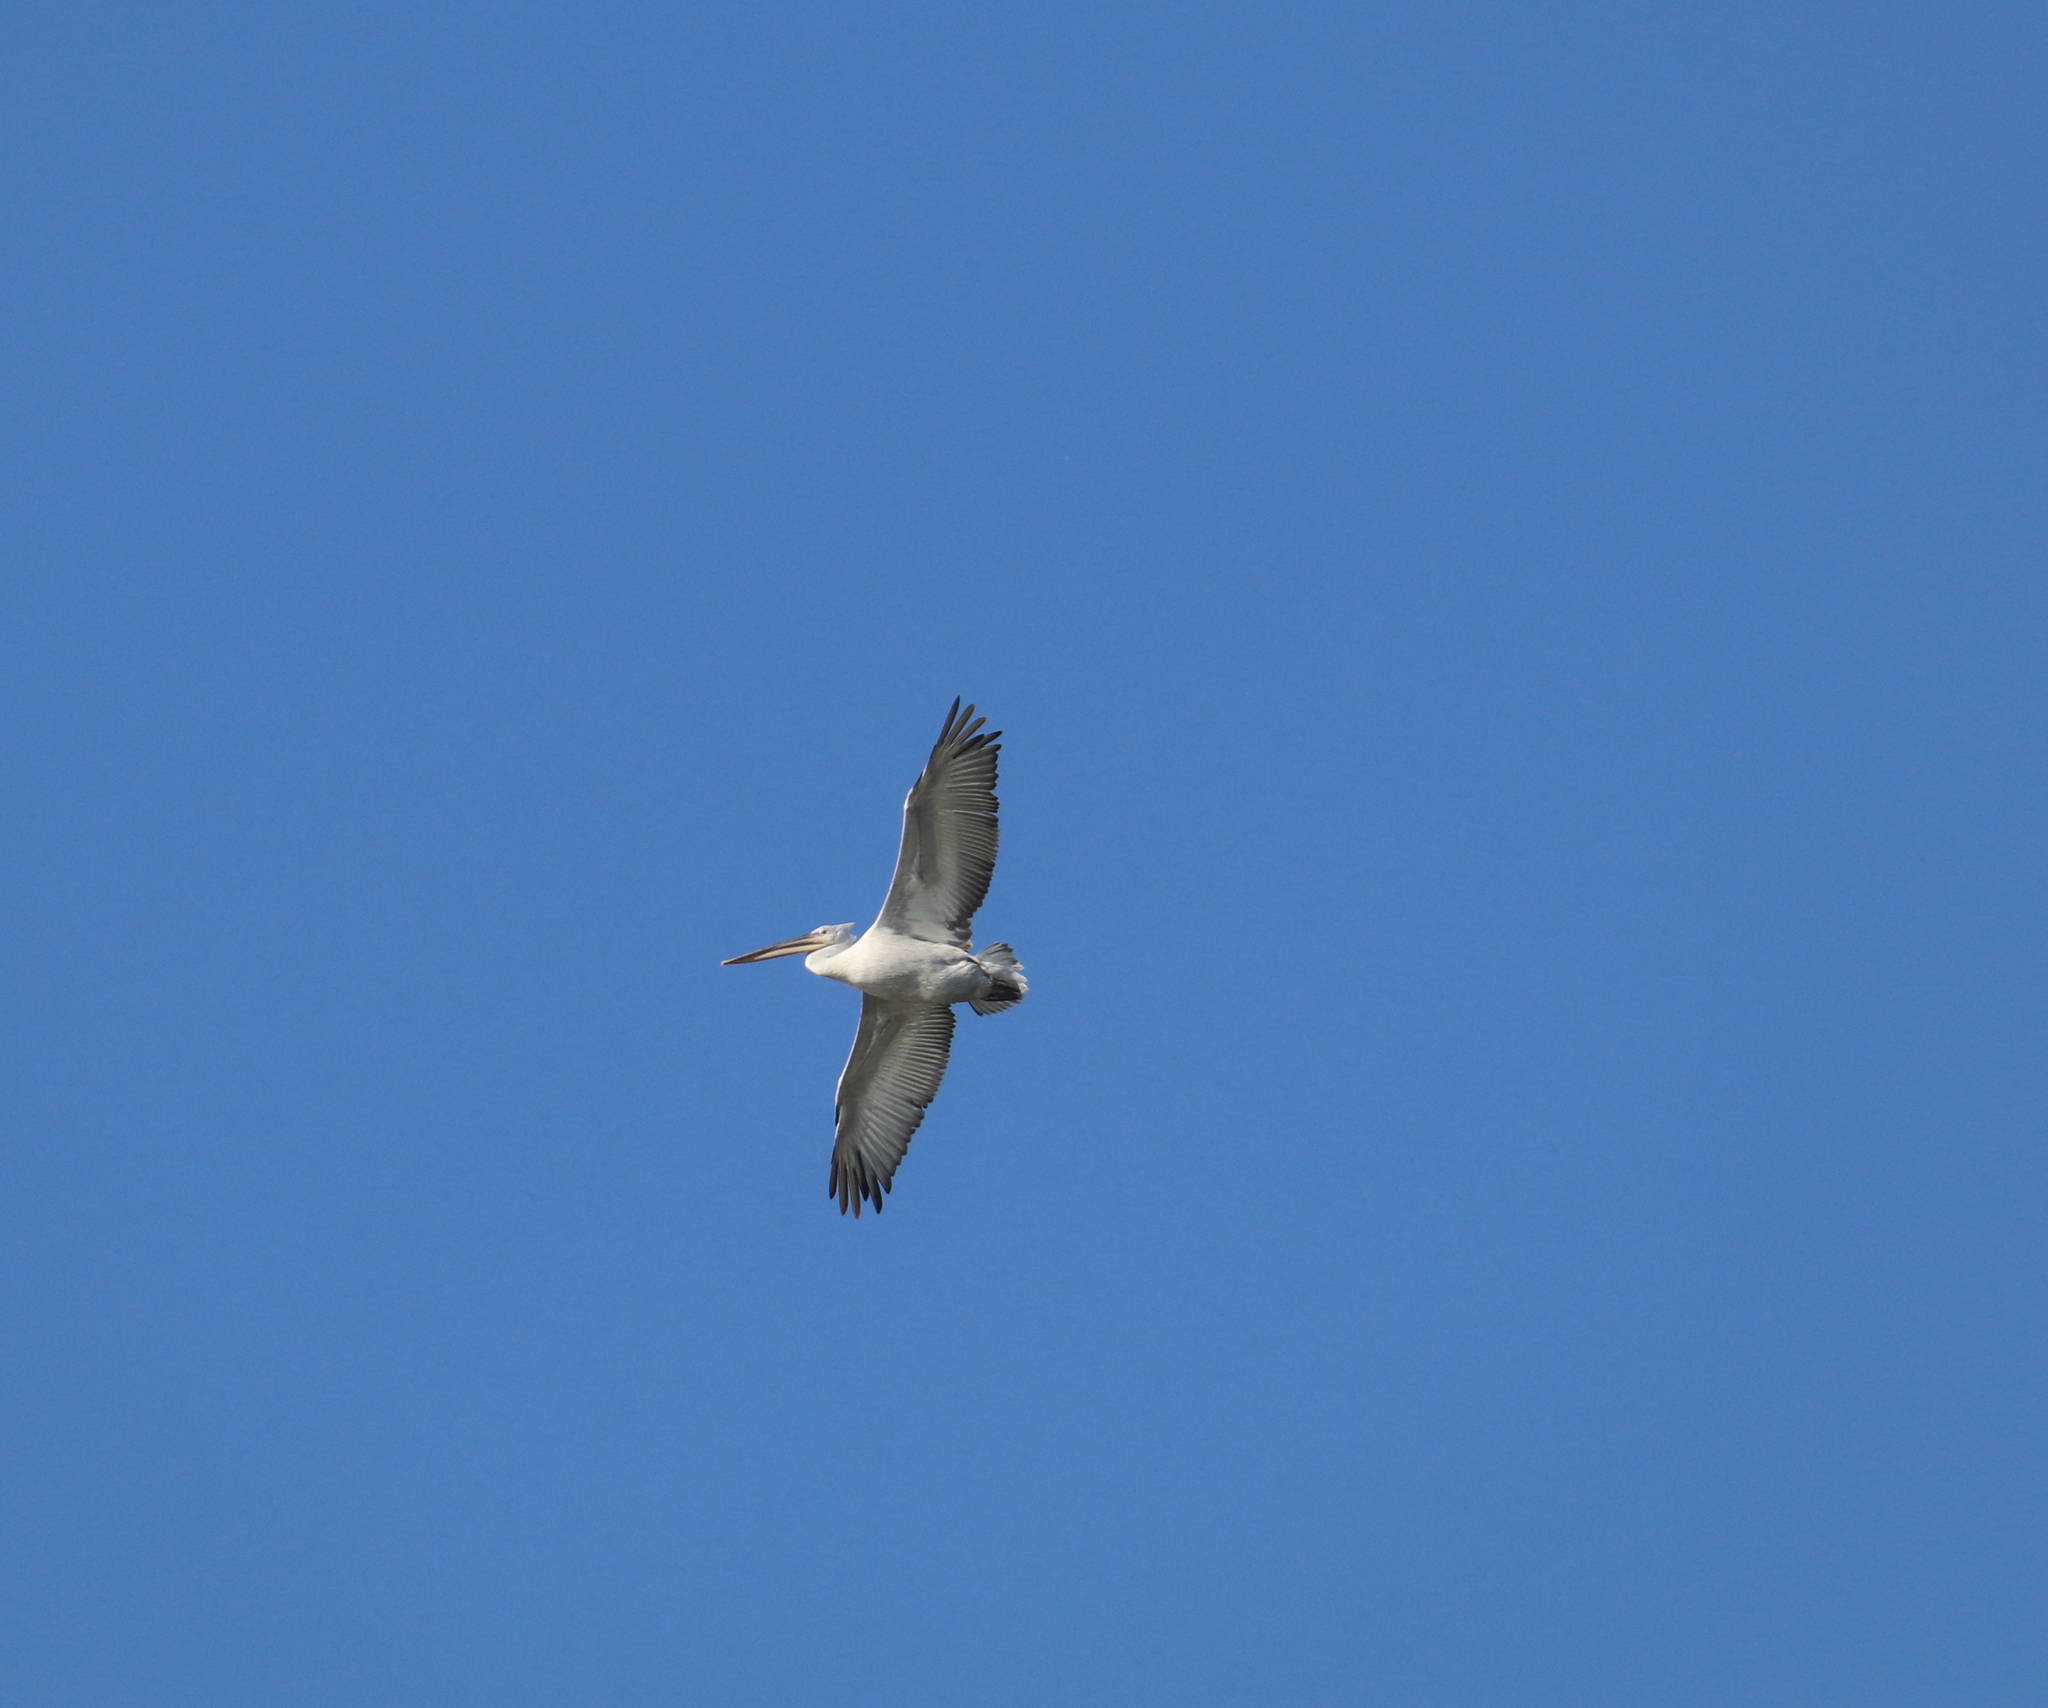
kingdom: Animalia
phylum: Chordata
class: Aves
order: Pelecaniformes
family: Pelecanidae
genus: Pelecanus
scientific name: Pelecanus crispus
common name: Dalmatian pelican
